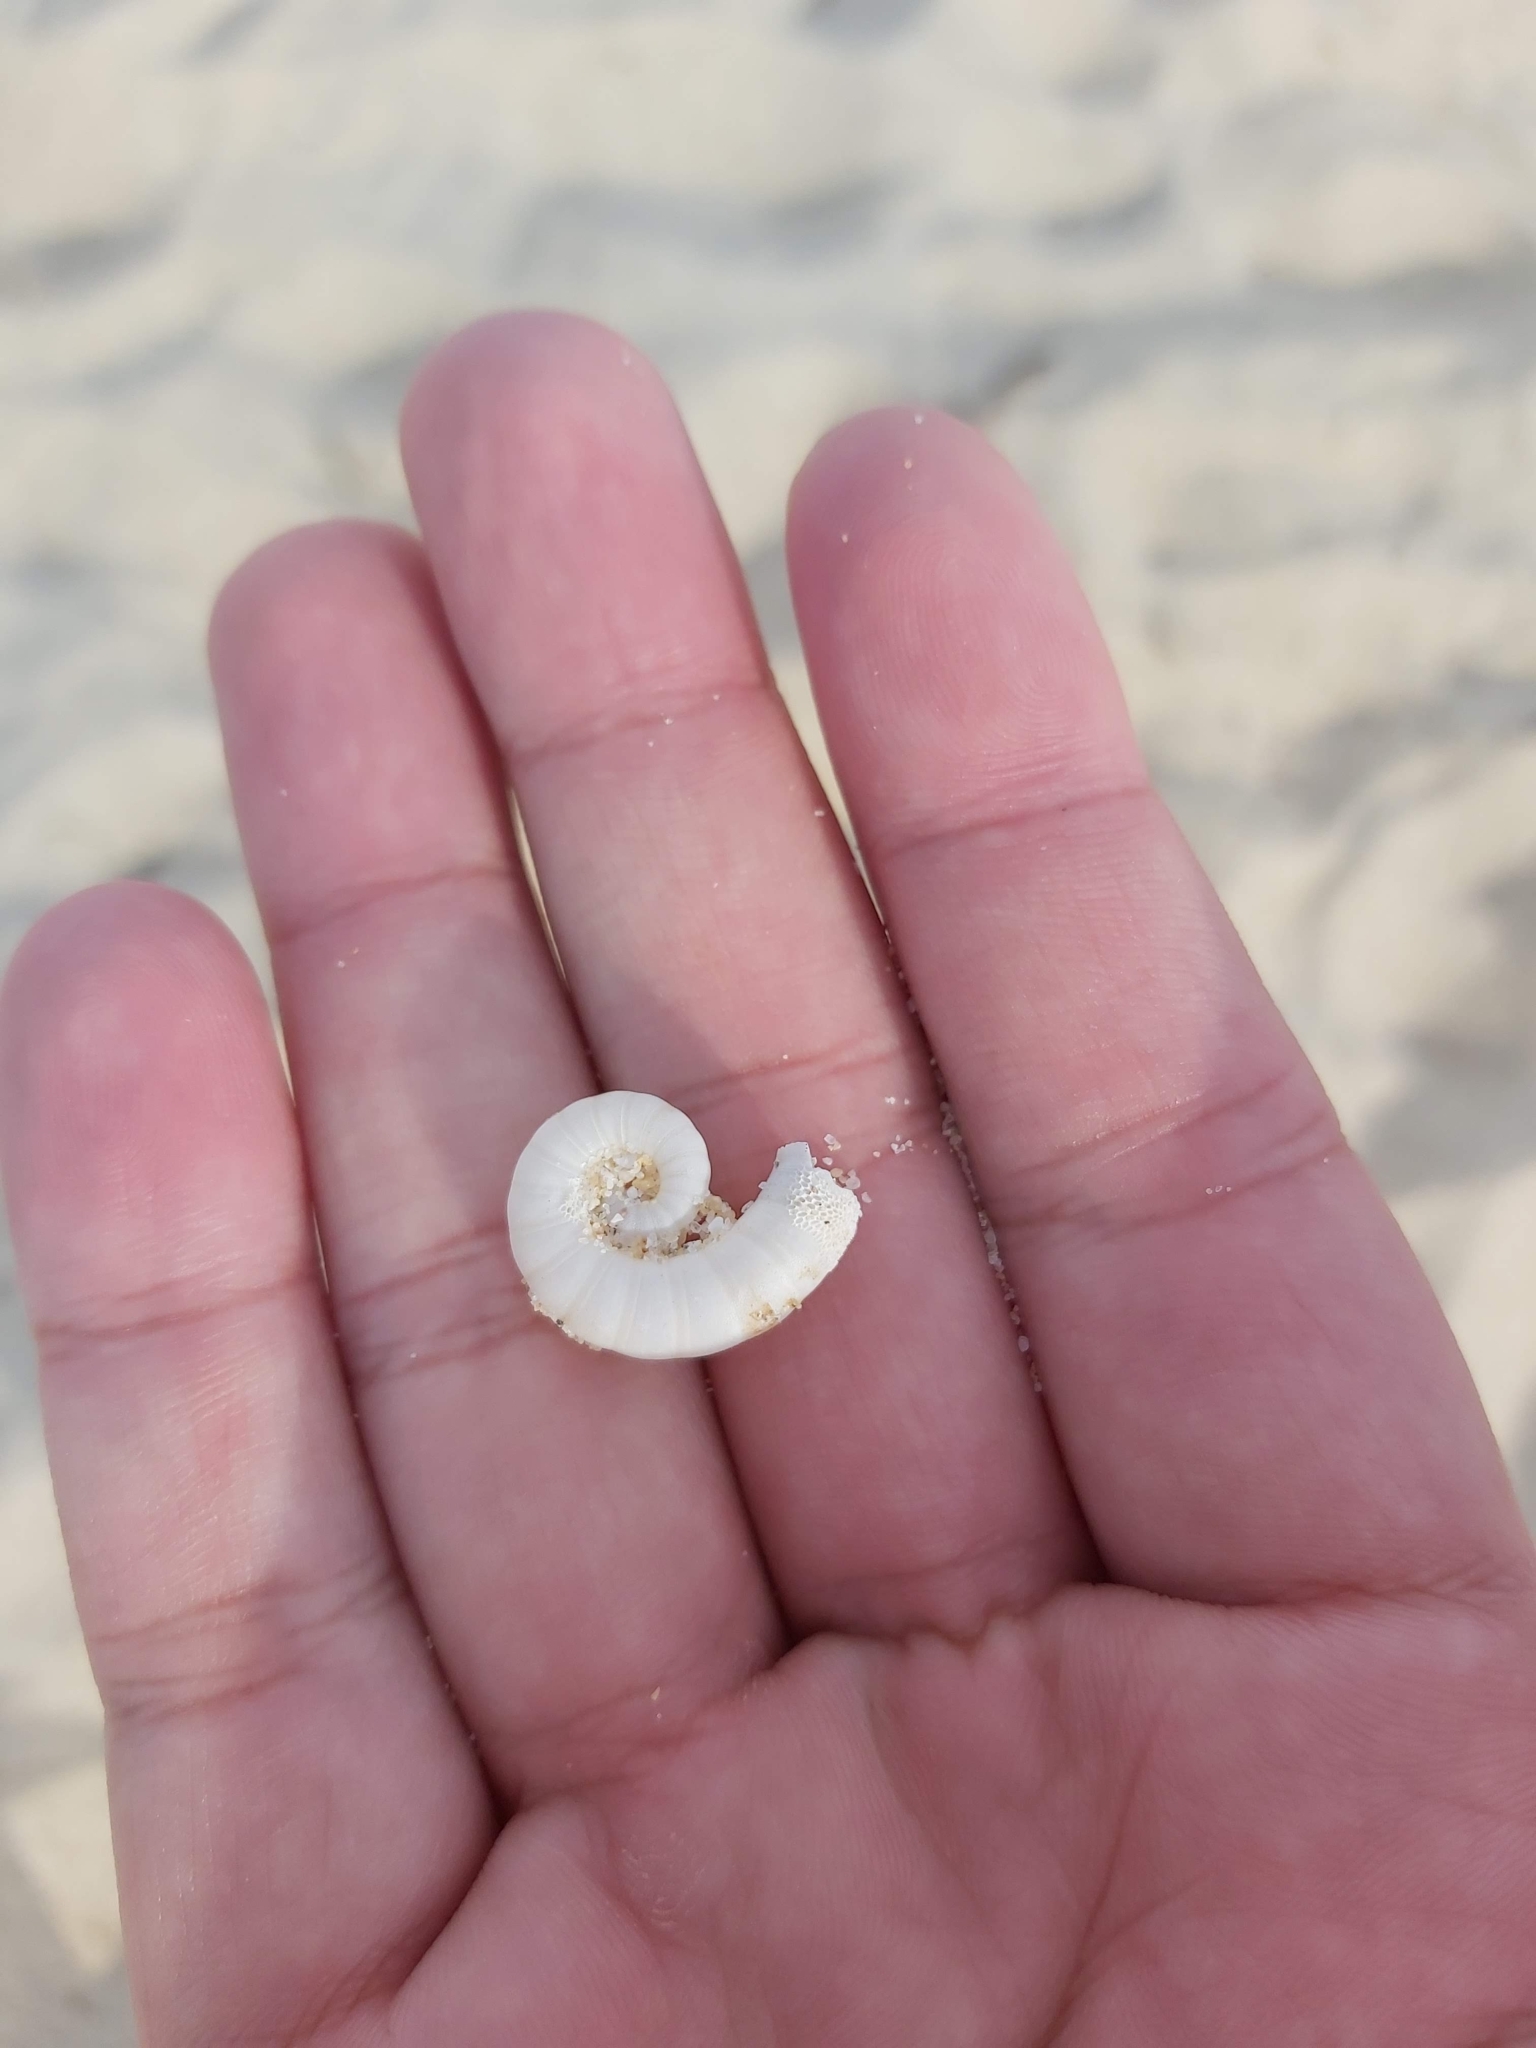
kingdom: Animalia
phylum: Mollusca
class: Cephalopoda
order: Spirulida
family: Spirulidae
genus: Spirula
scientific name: Spirula spirula
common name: Ram's horn squid
